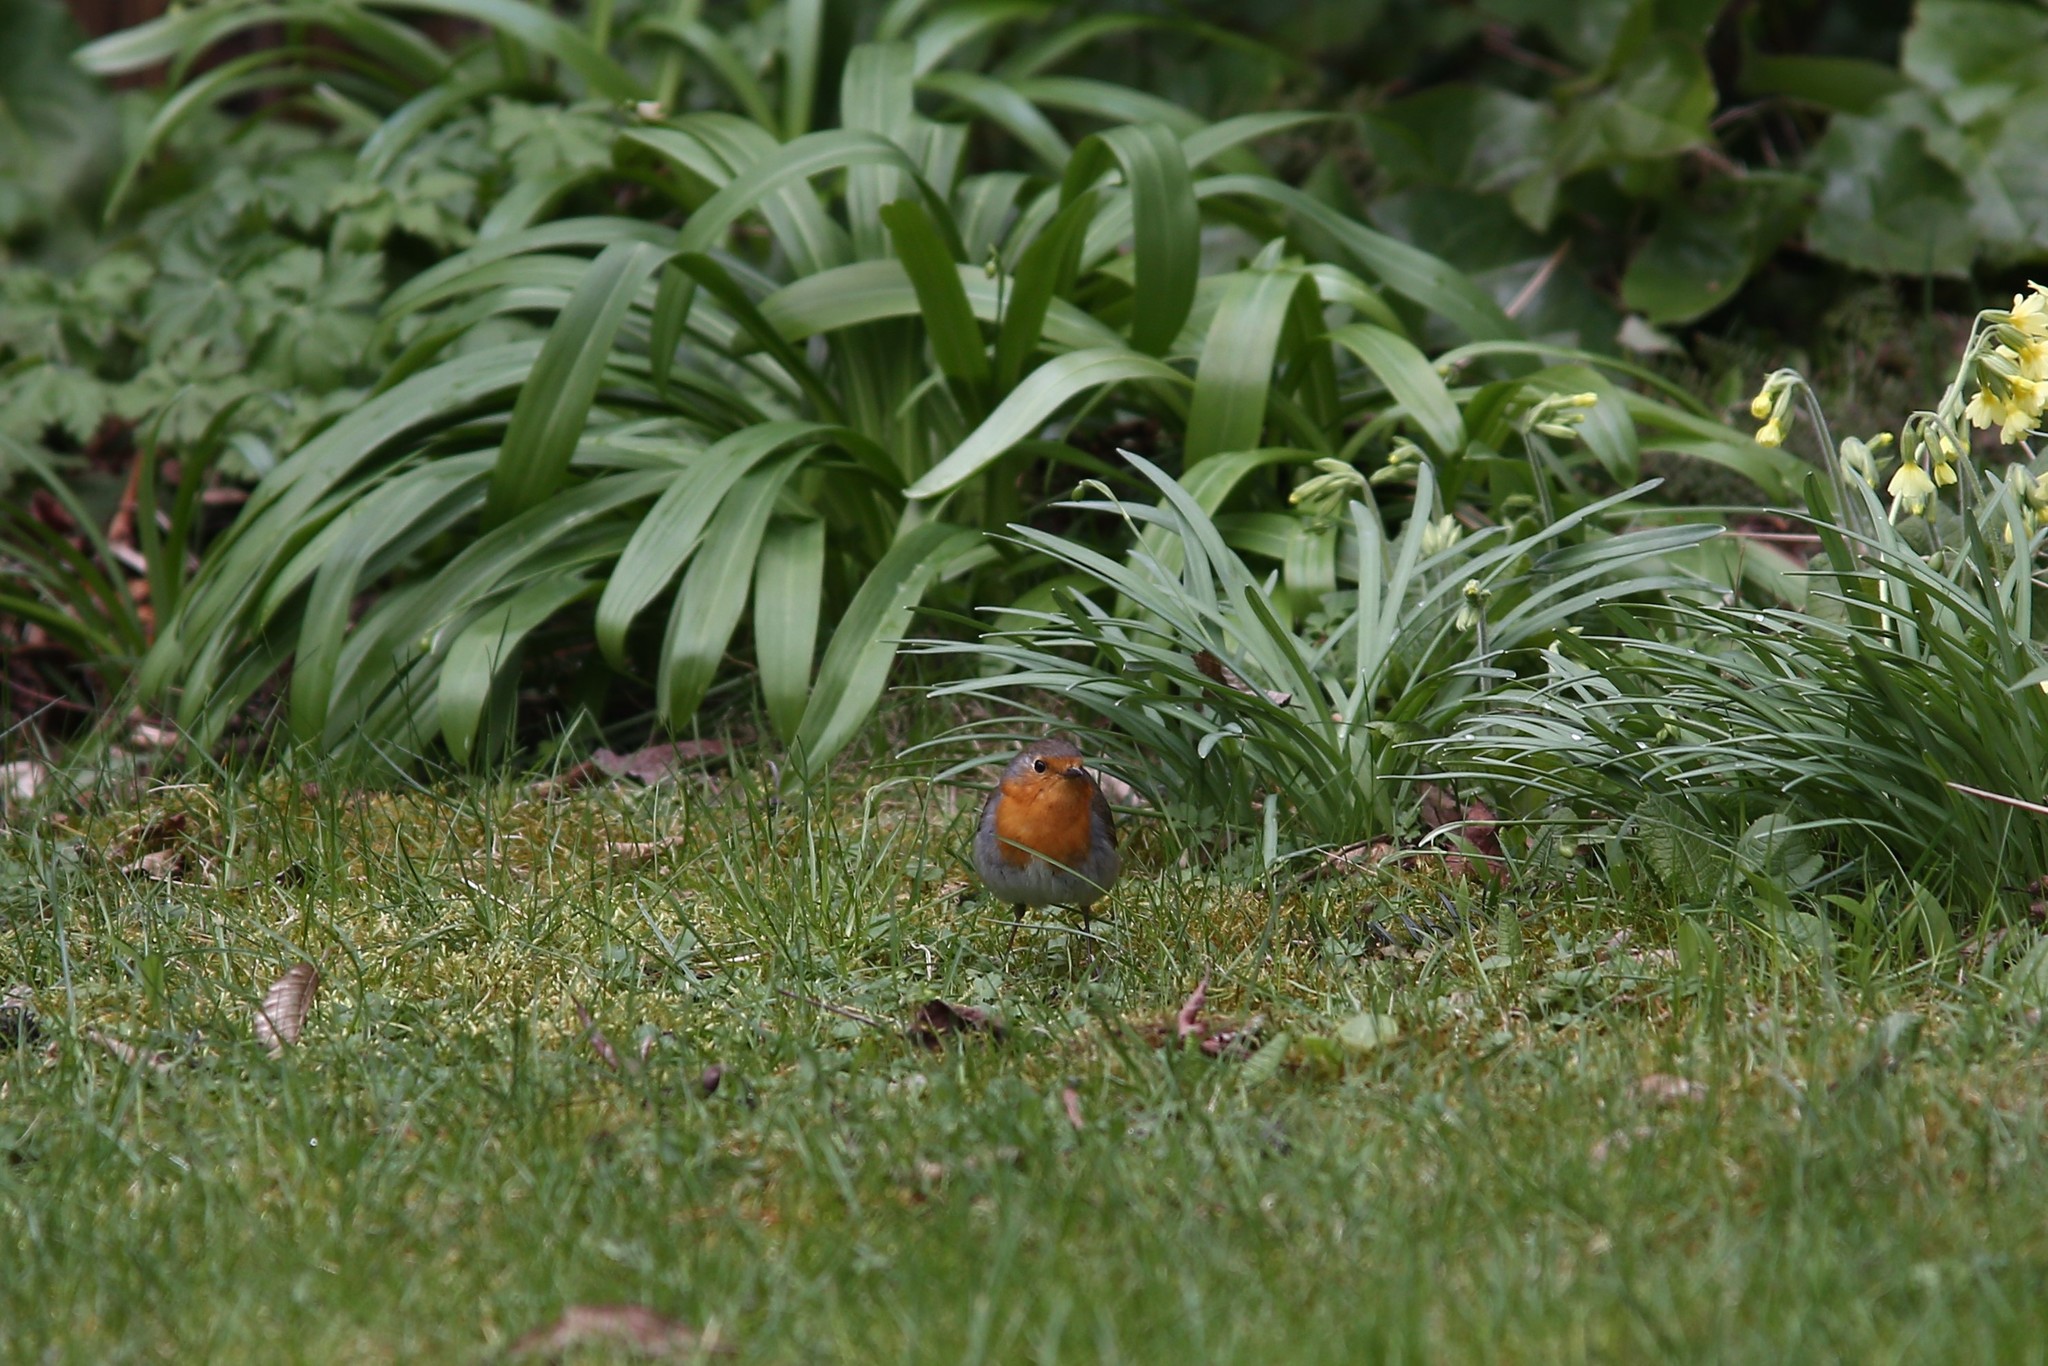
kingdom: Animalia
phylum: Chordata
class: Aves
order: Passeriformes
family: Muscicapidae
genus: Erithacus
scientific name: Erithacus rubecula
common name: European robin
